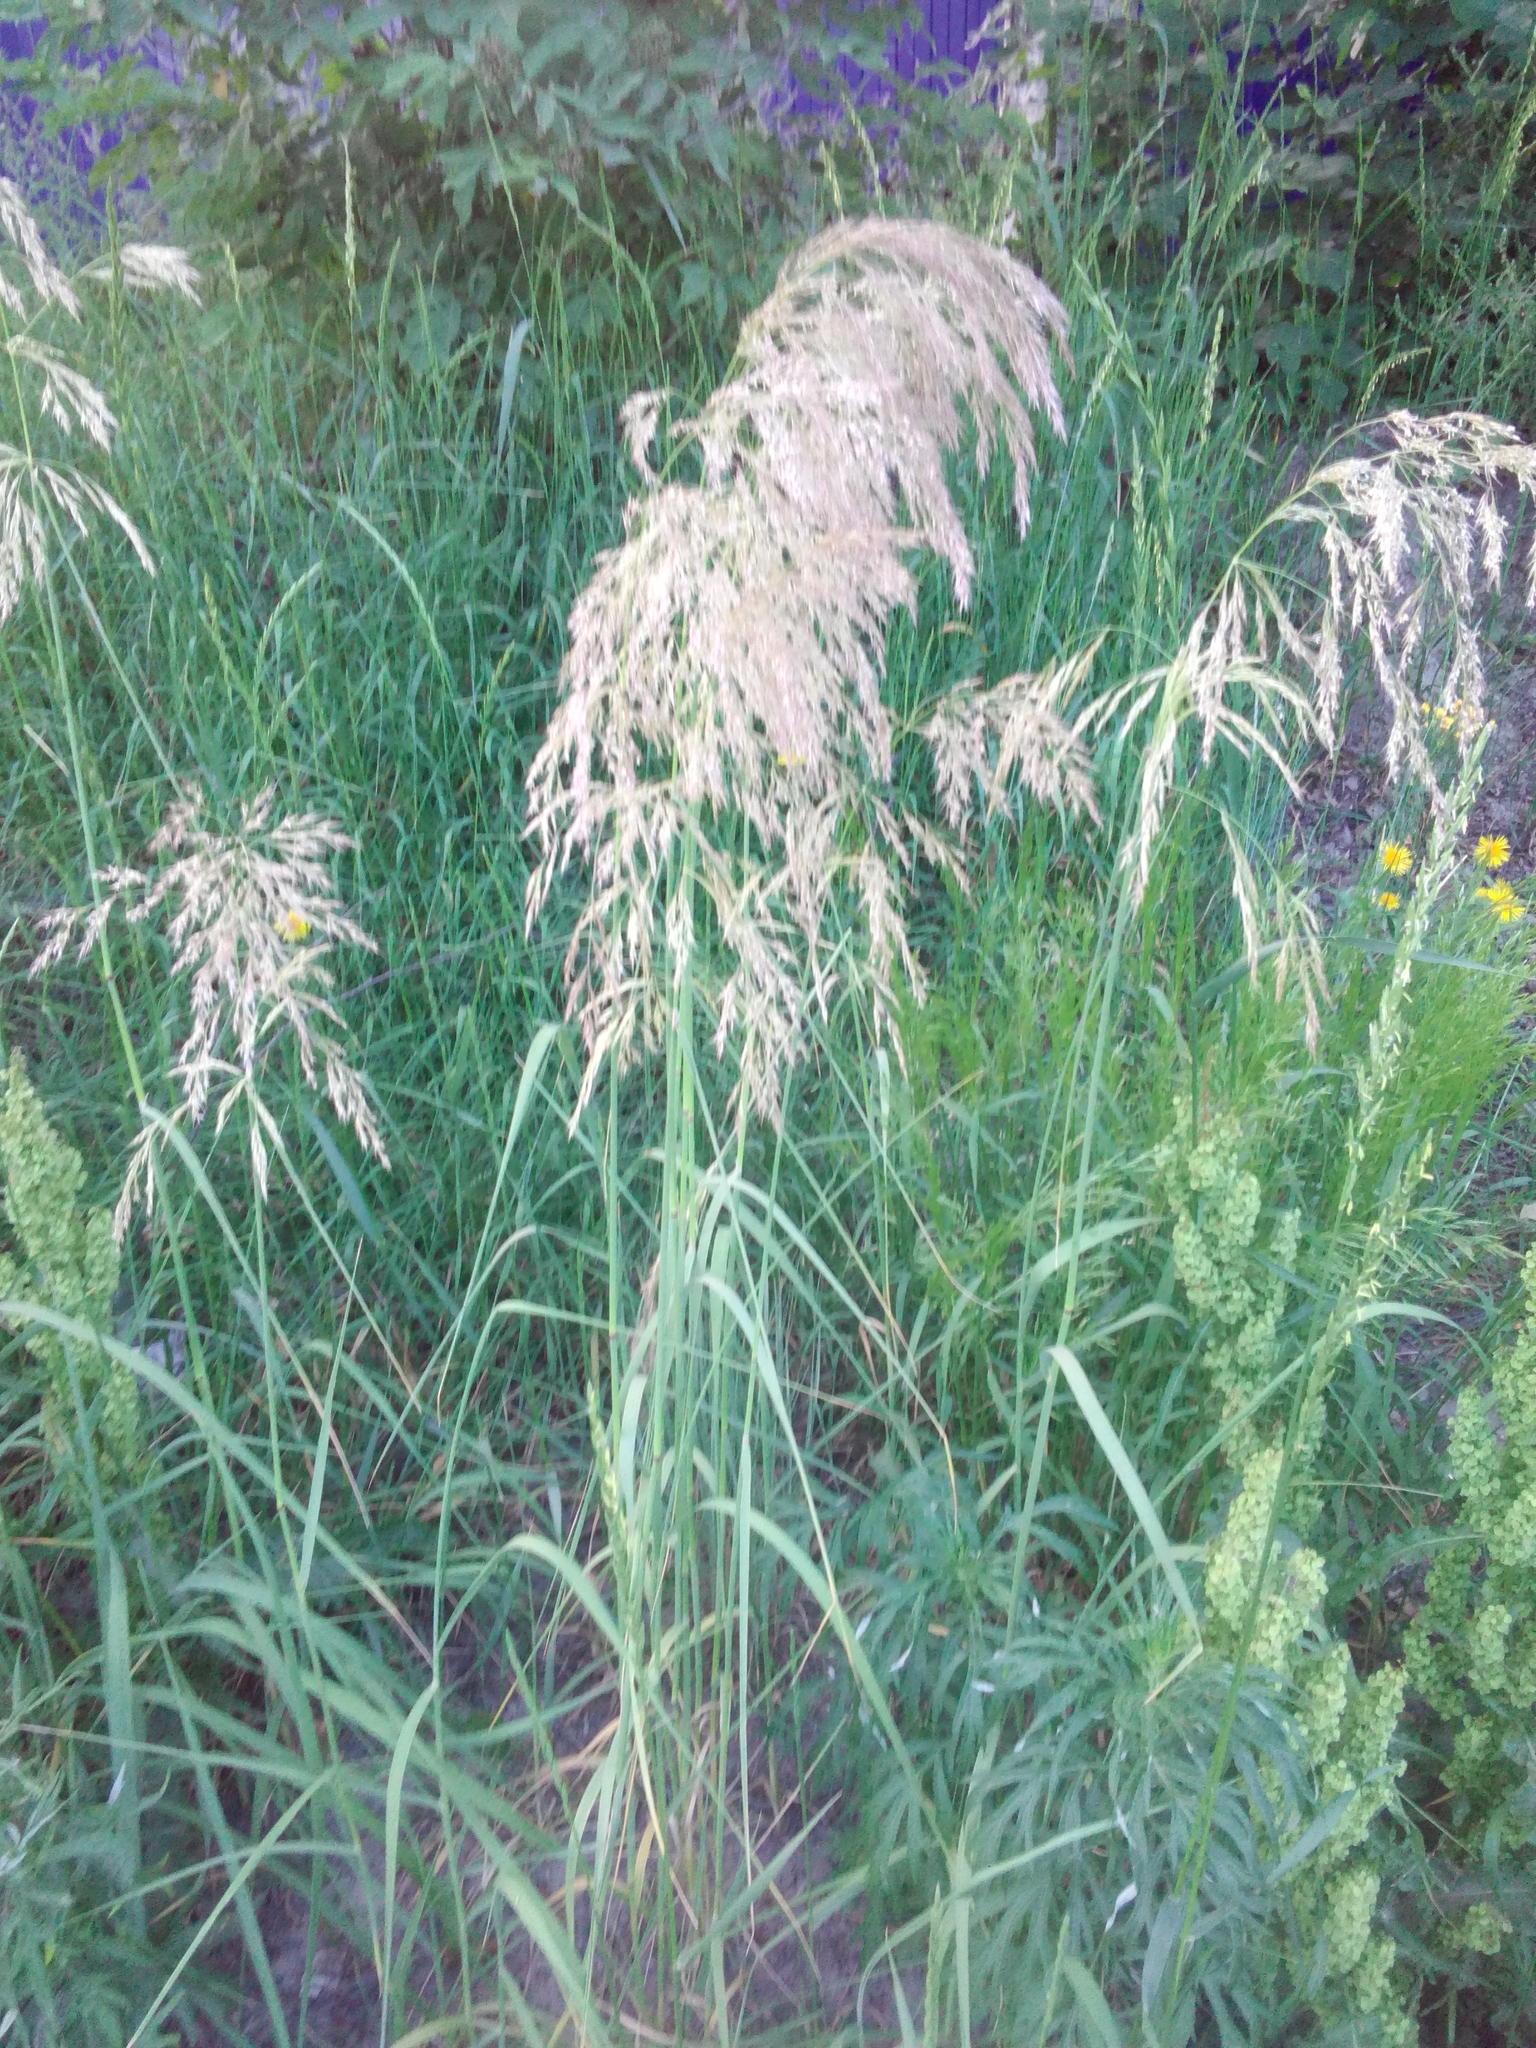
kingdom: Plantae
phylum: Tracheophyta
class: Liliopsida
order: Poales
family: Poaceae
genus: Deschampsia
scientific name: Deschampsia cespitosa
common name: Tufted hair-grass
